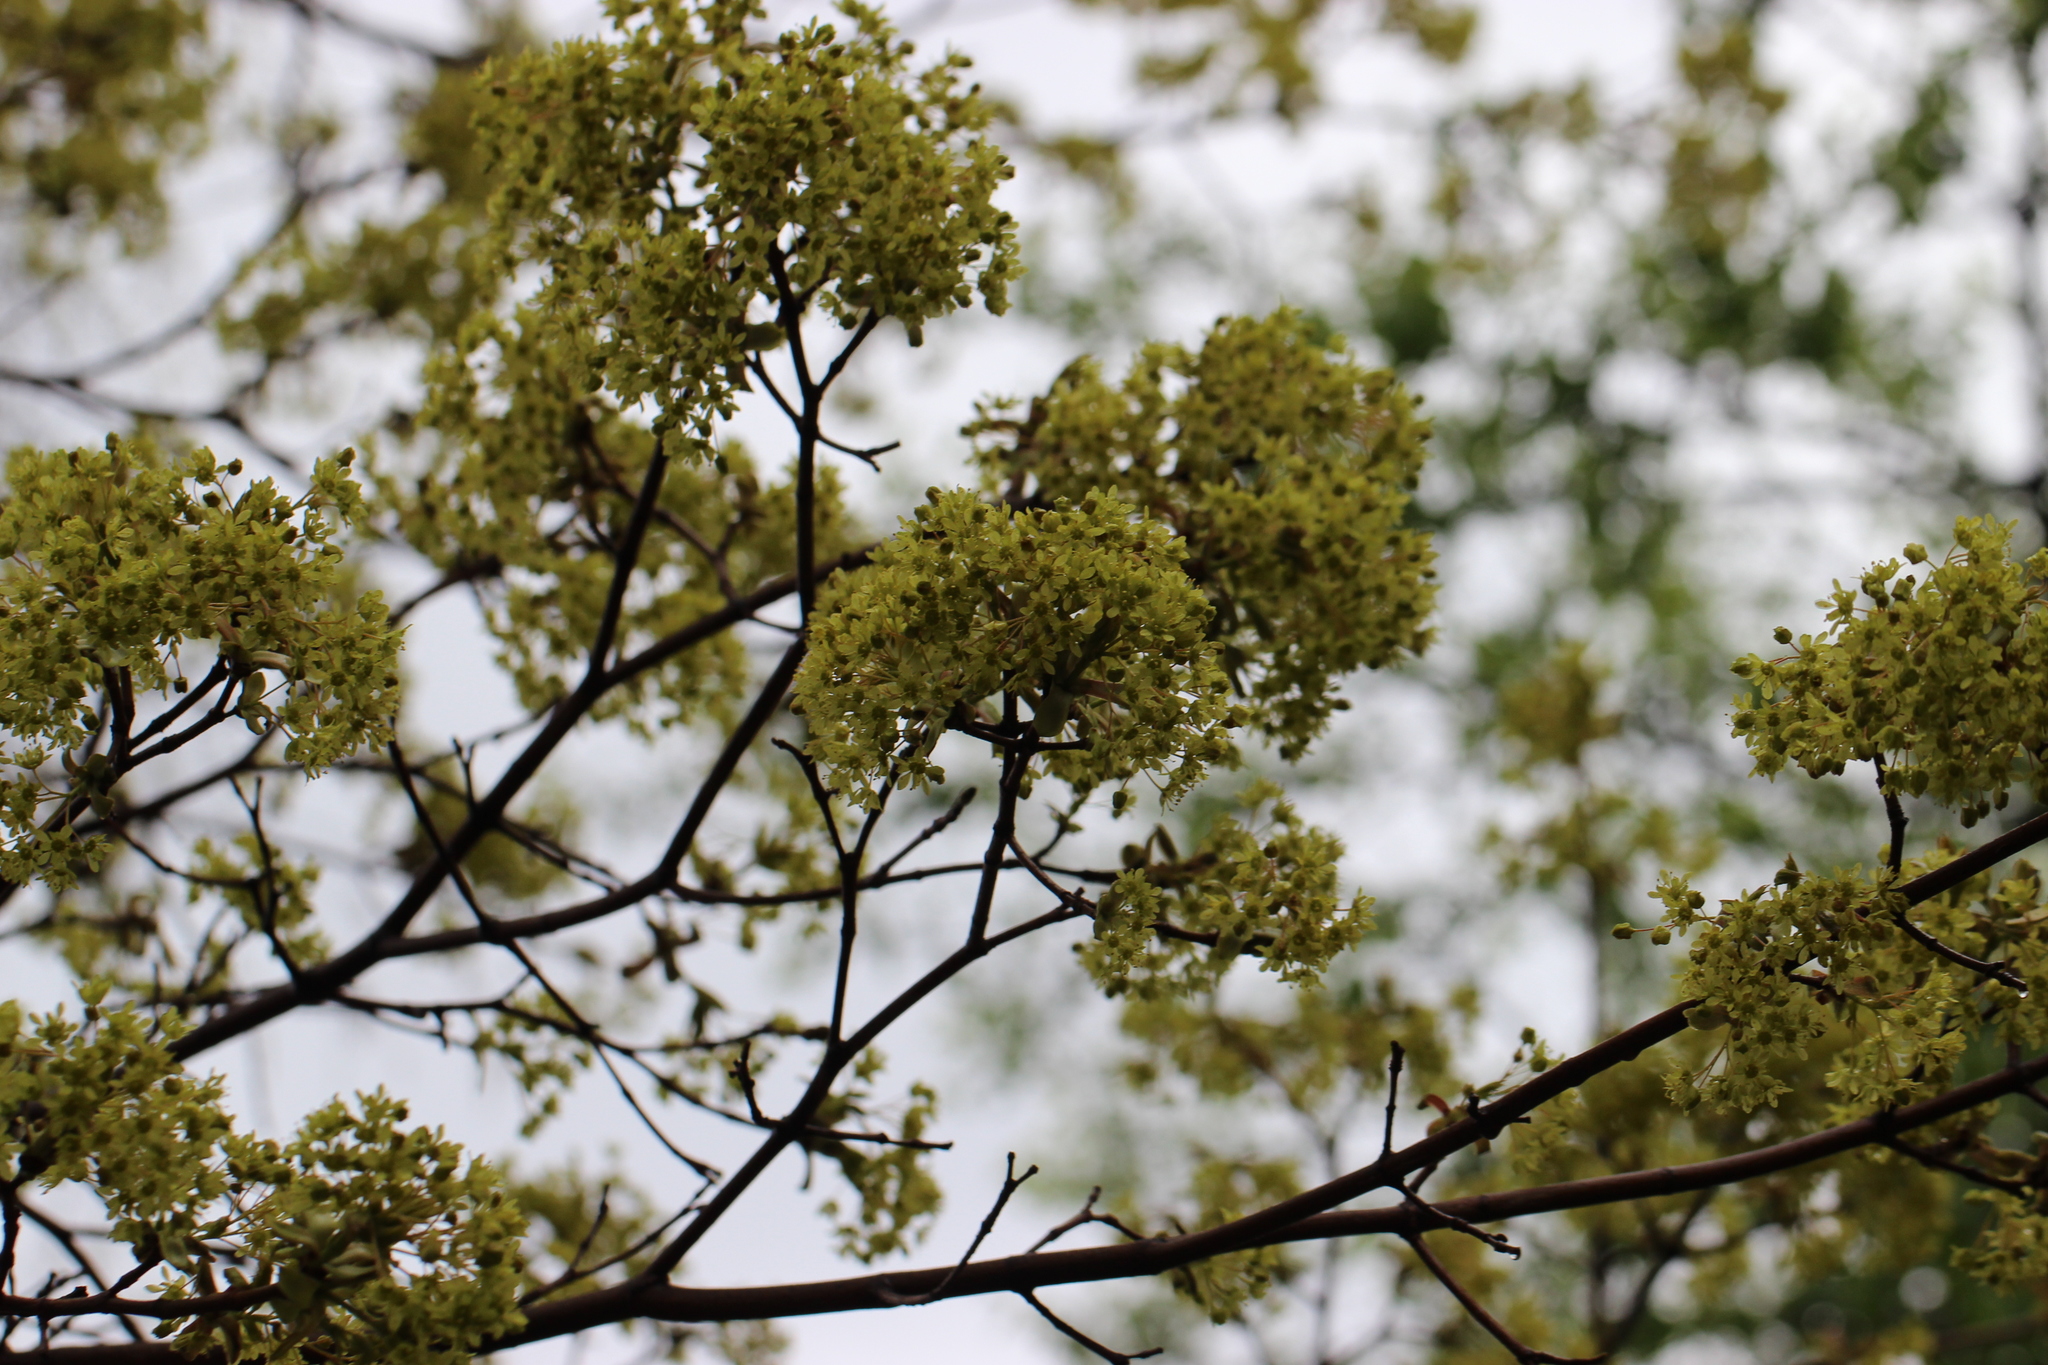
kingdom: Plantae
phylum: Tracheophyta
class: Magnoliopsida
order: Sapindales
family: Sapindaceae
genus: Acer
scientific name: Acer platanoides
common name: Norway maple
